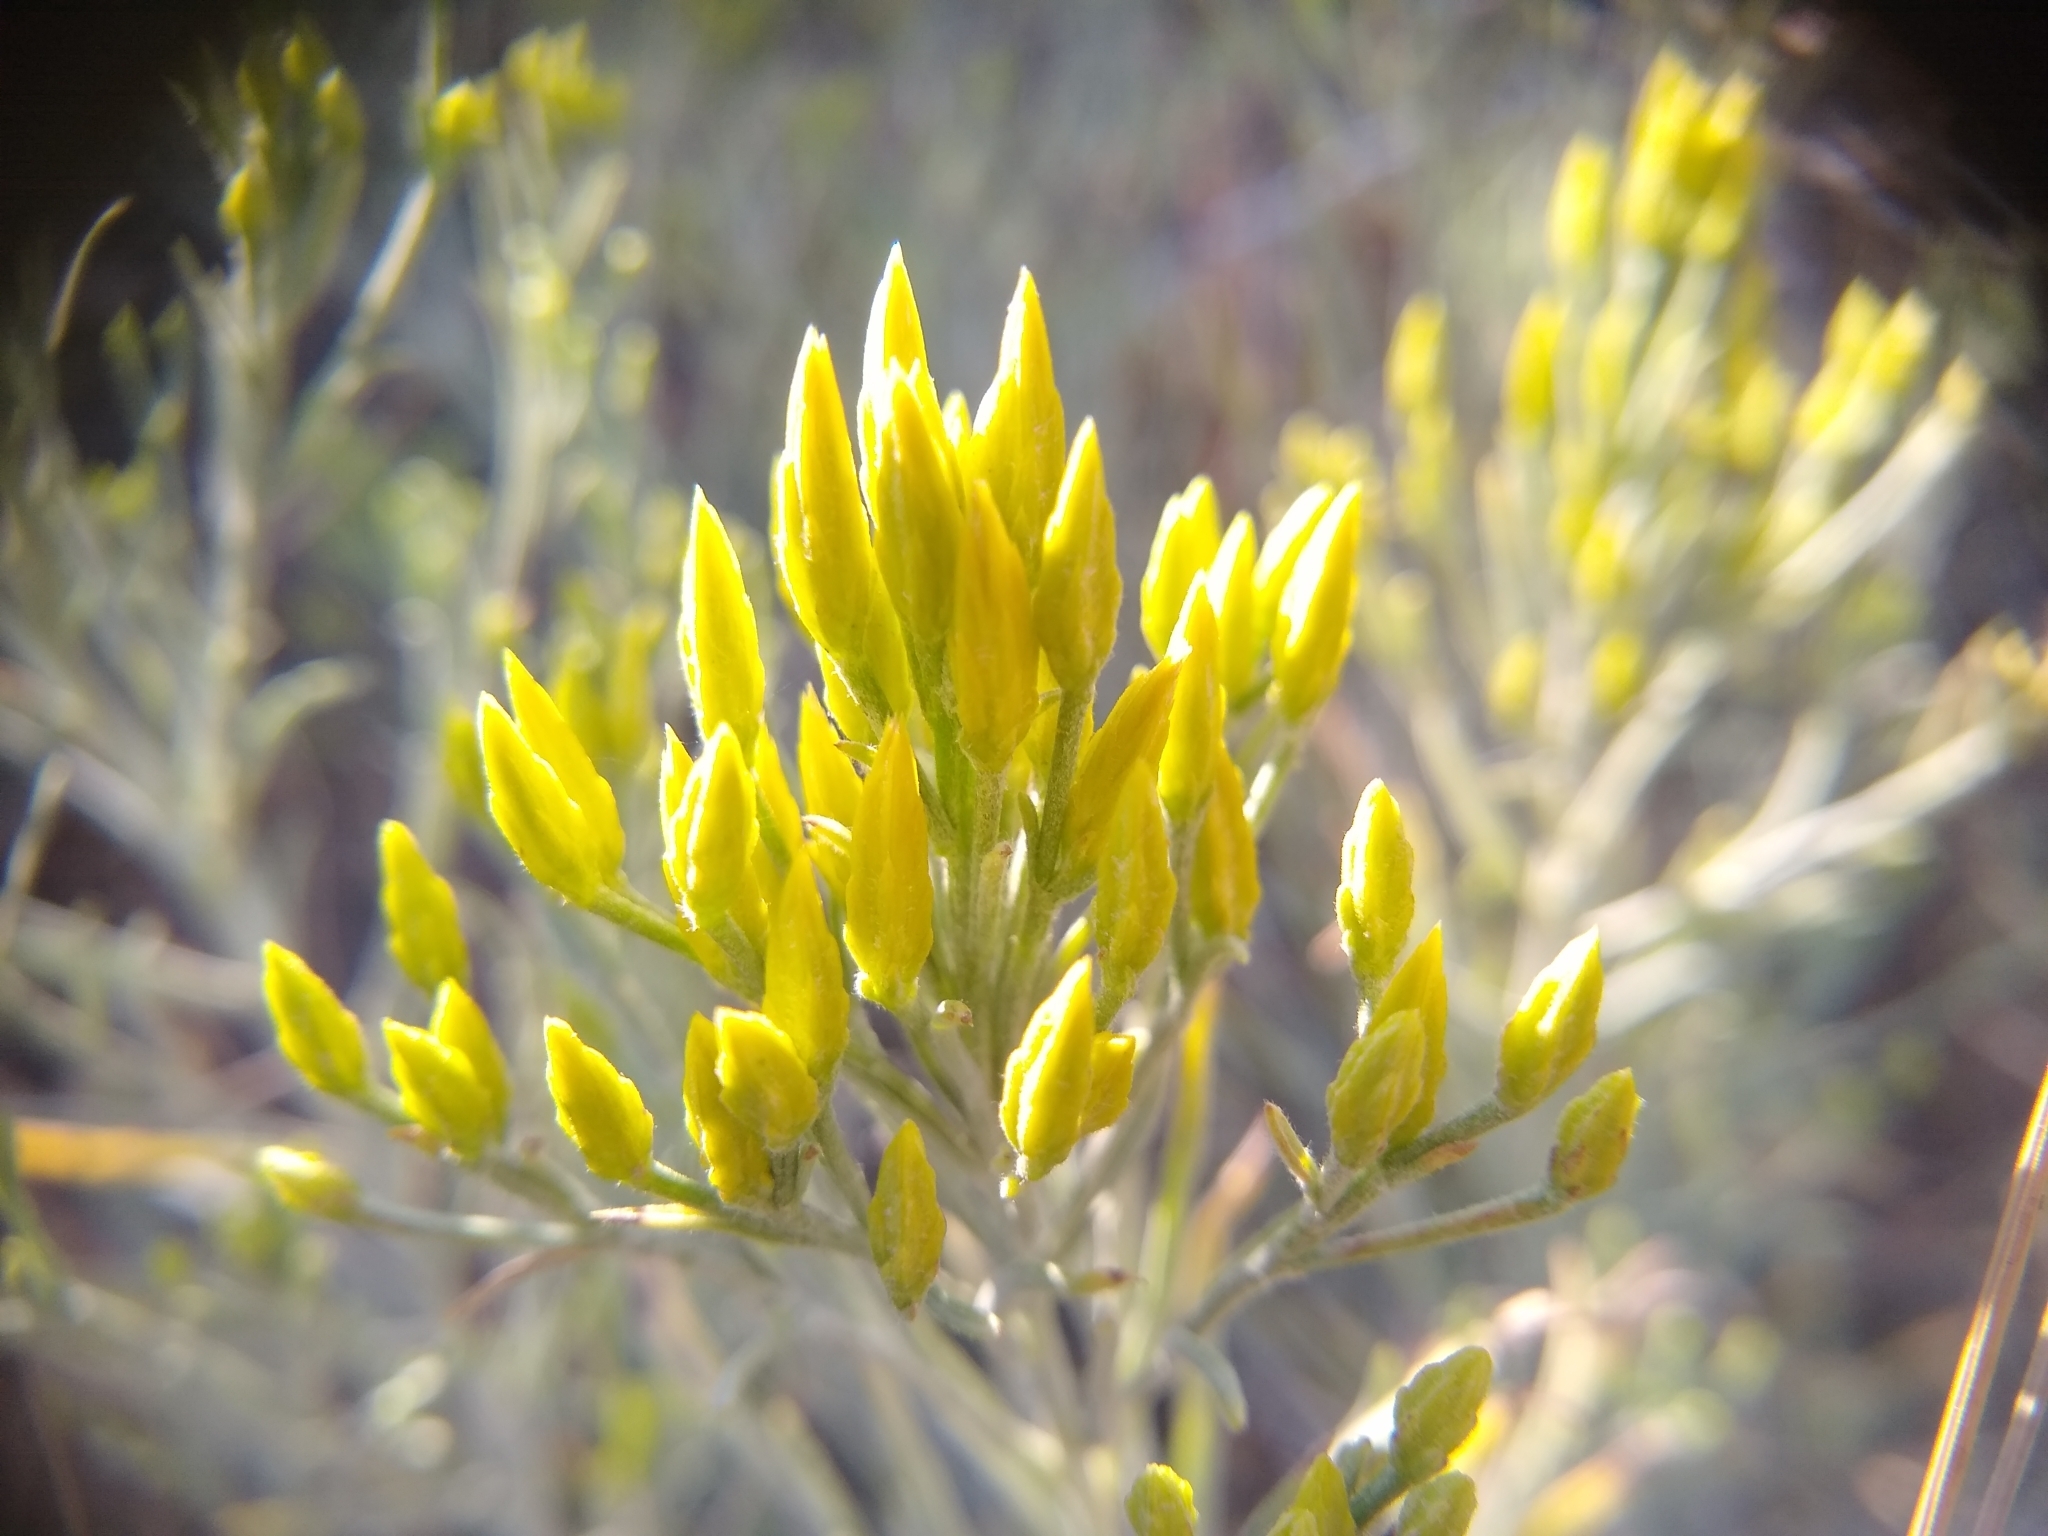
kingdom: Plantae
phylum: Tracheophyta
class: Magnoliopsida
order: Asterales
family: Asteraceae
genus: Ericameria
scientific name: Ericameria nauseosa
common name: Rubber rabbitbrush
